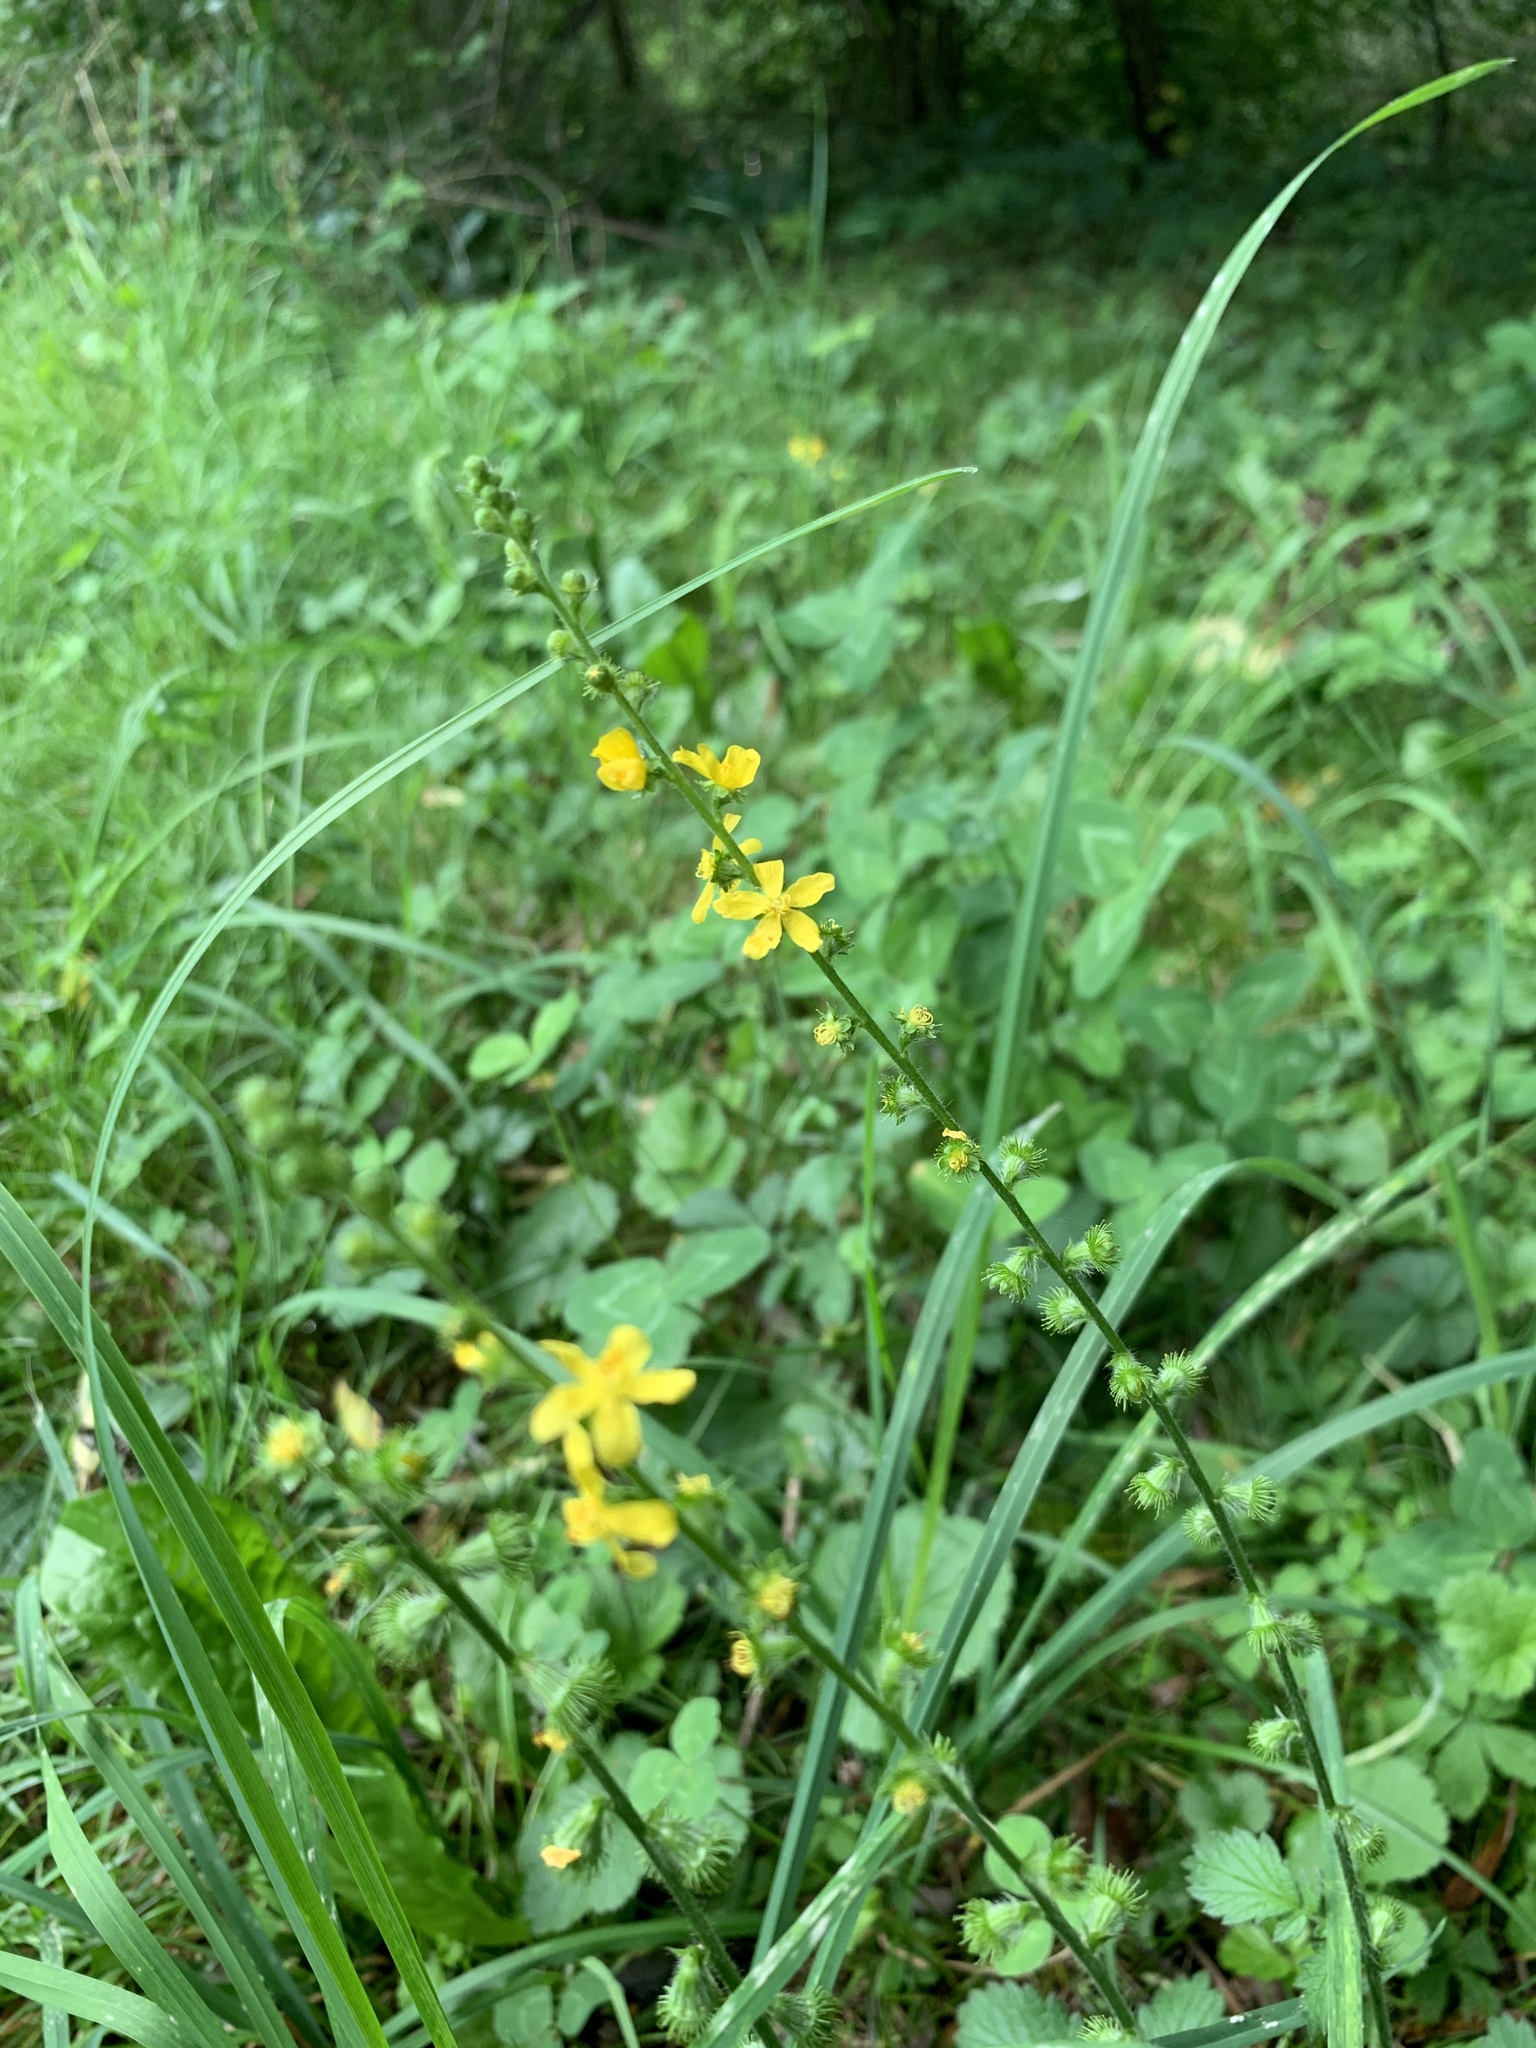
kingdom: Plantae
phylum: Tracheophyta
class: Magnoliopsida
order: Rosales
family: Rosaceae
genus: Agrimonia
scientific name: Agrimonia eupatoria
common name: Agrimony
